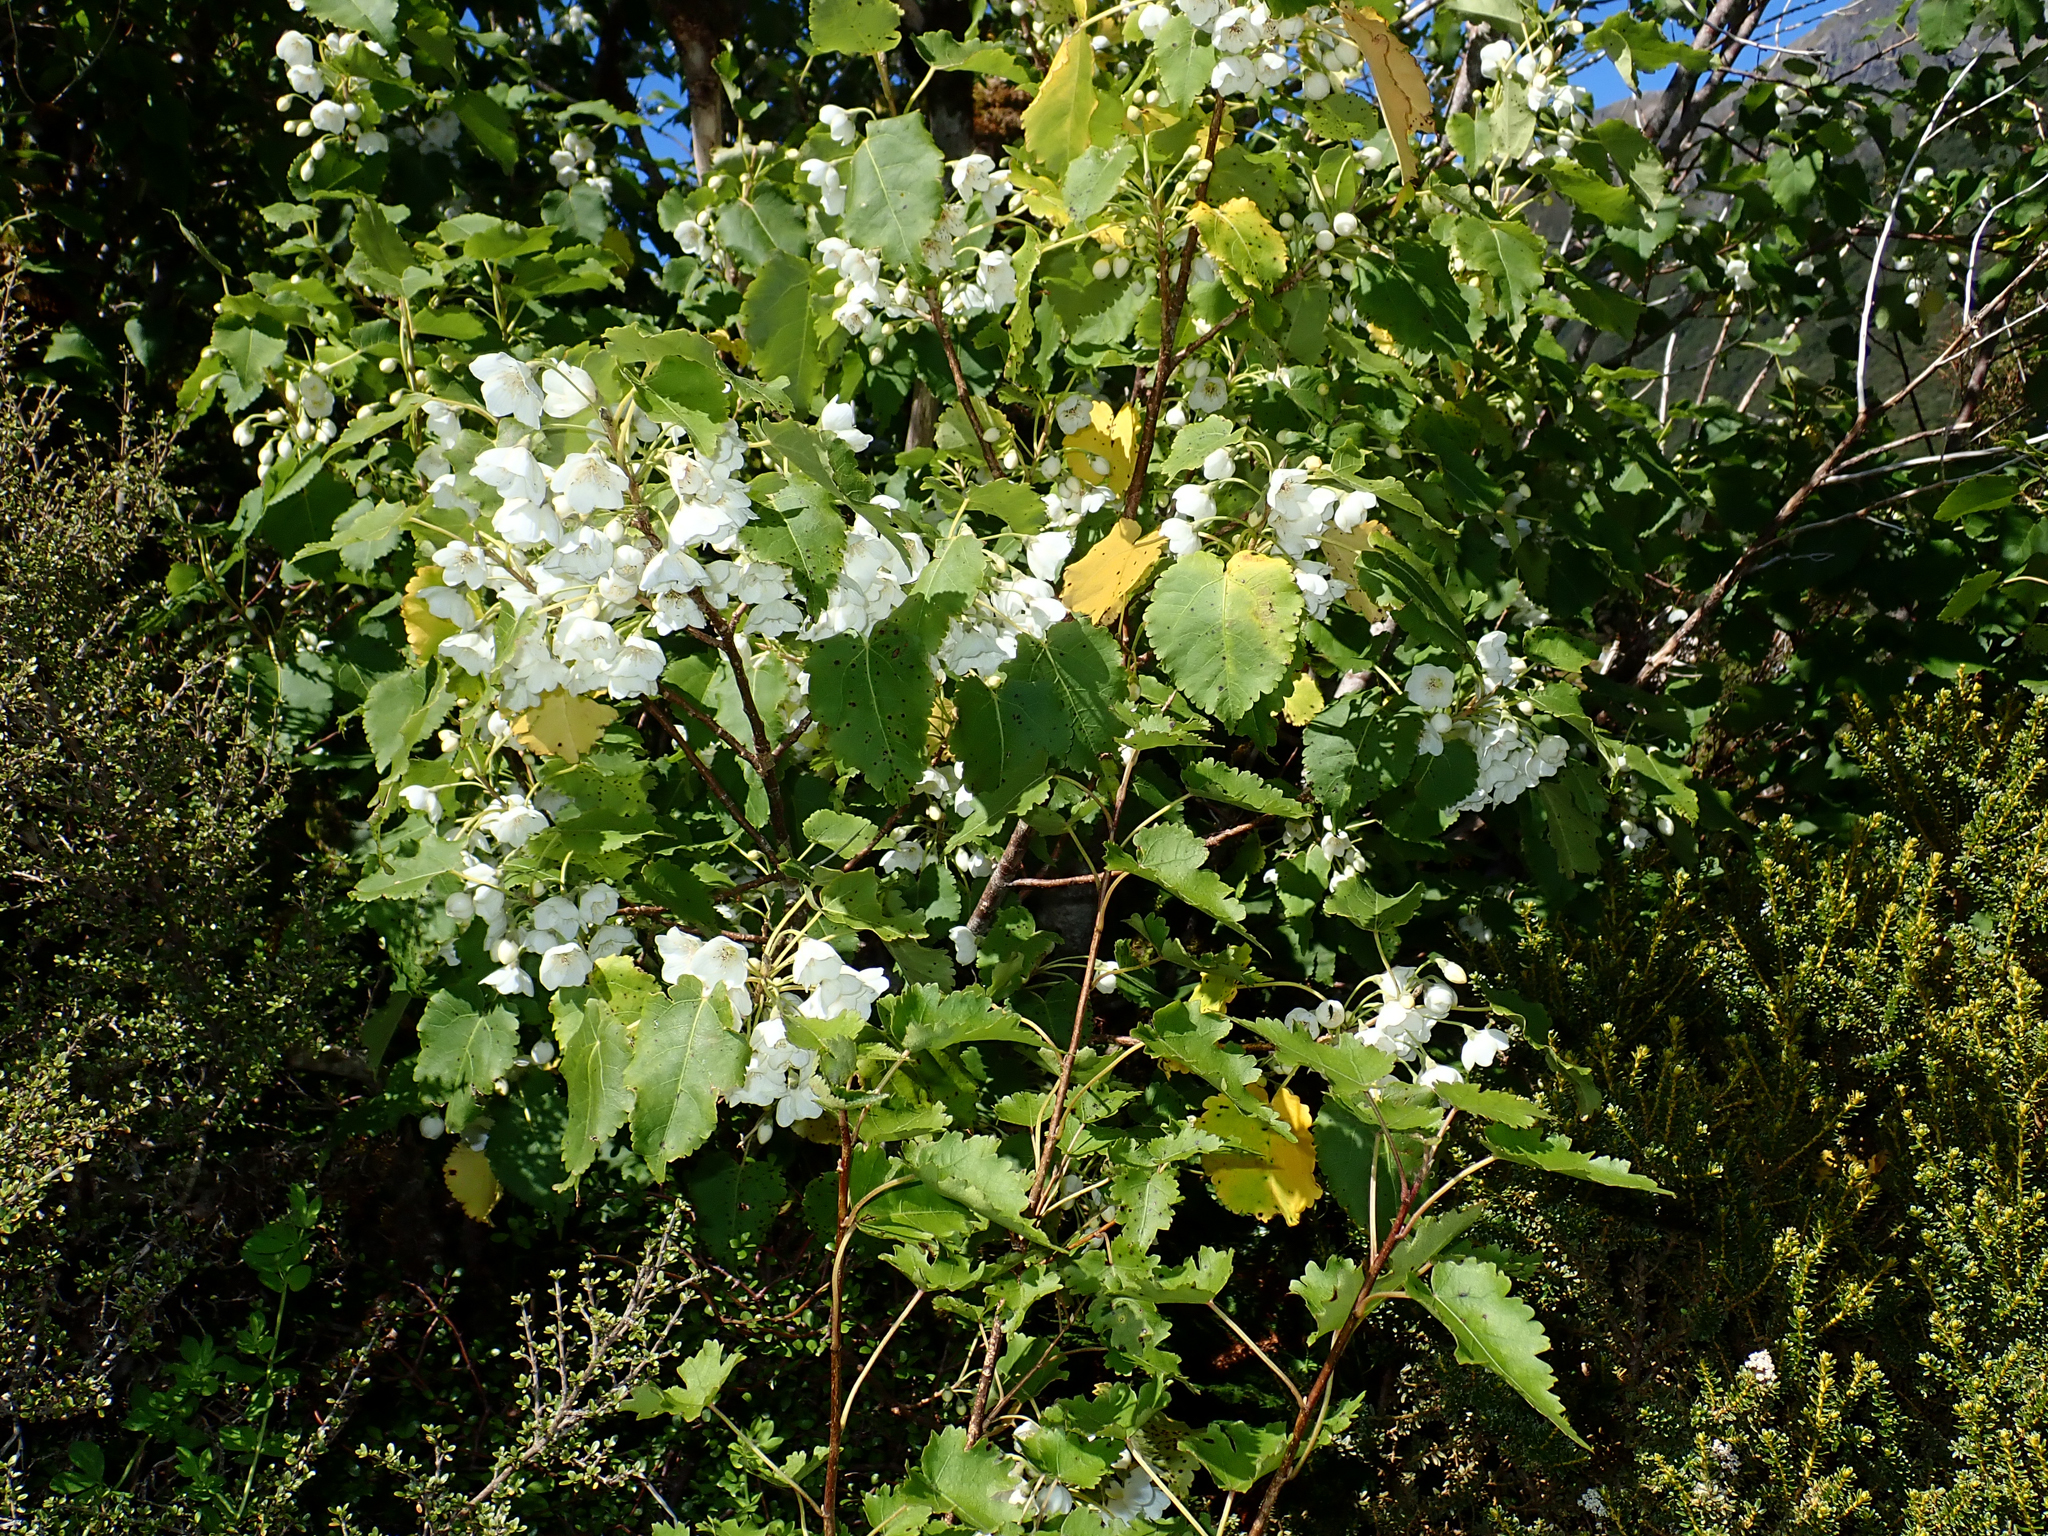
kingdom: Plantae
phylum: Tracheophyta
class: Magnoliopsida
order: Malvales
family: Malvaceae
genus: Hoheria
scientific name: Hoheria glabrata
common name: Mountain-ribbon
